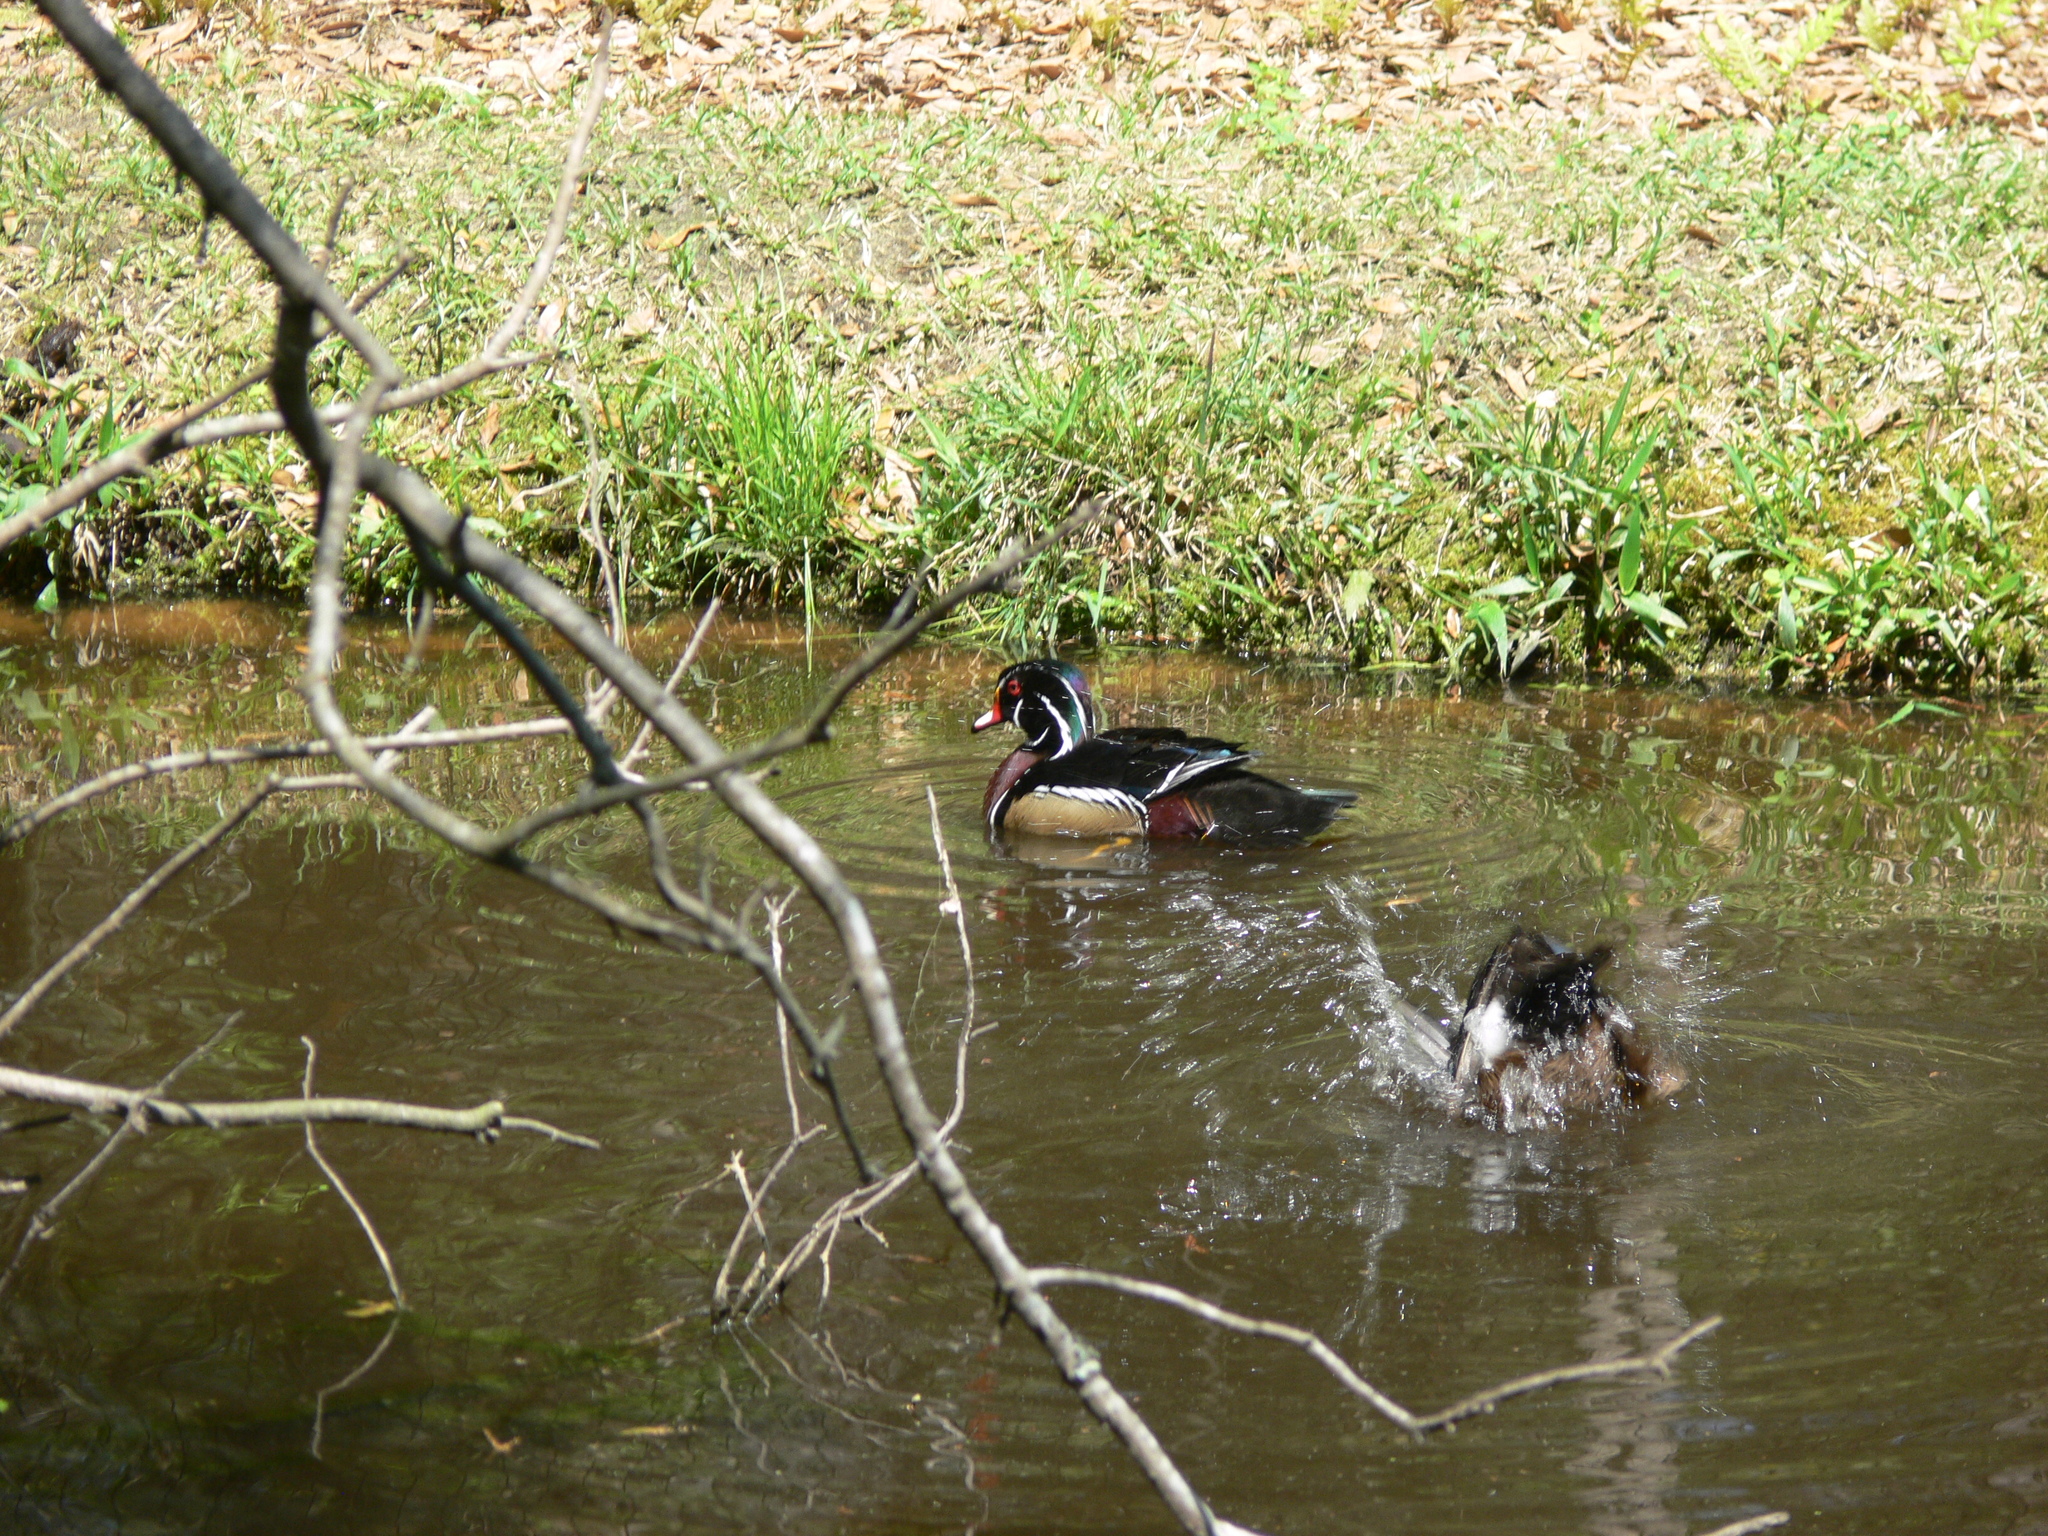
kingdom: Animalia
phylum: Chordata
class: Aves
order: Anseriformes
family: Anatidae
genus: Aix
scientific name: Aix sponsa
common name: Wood duck
